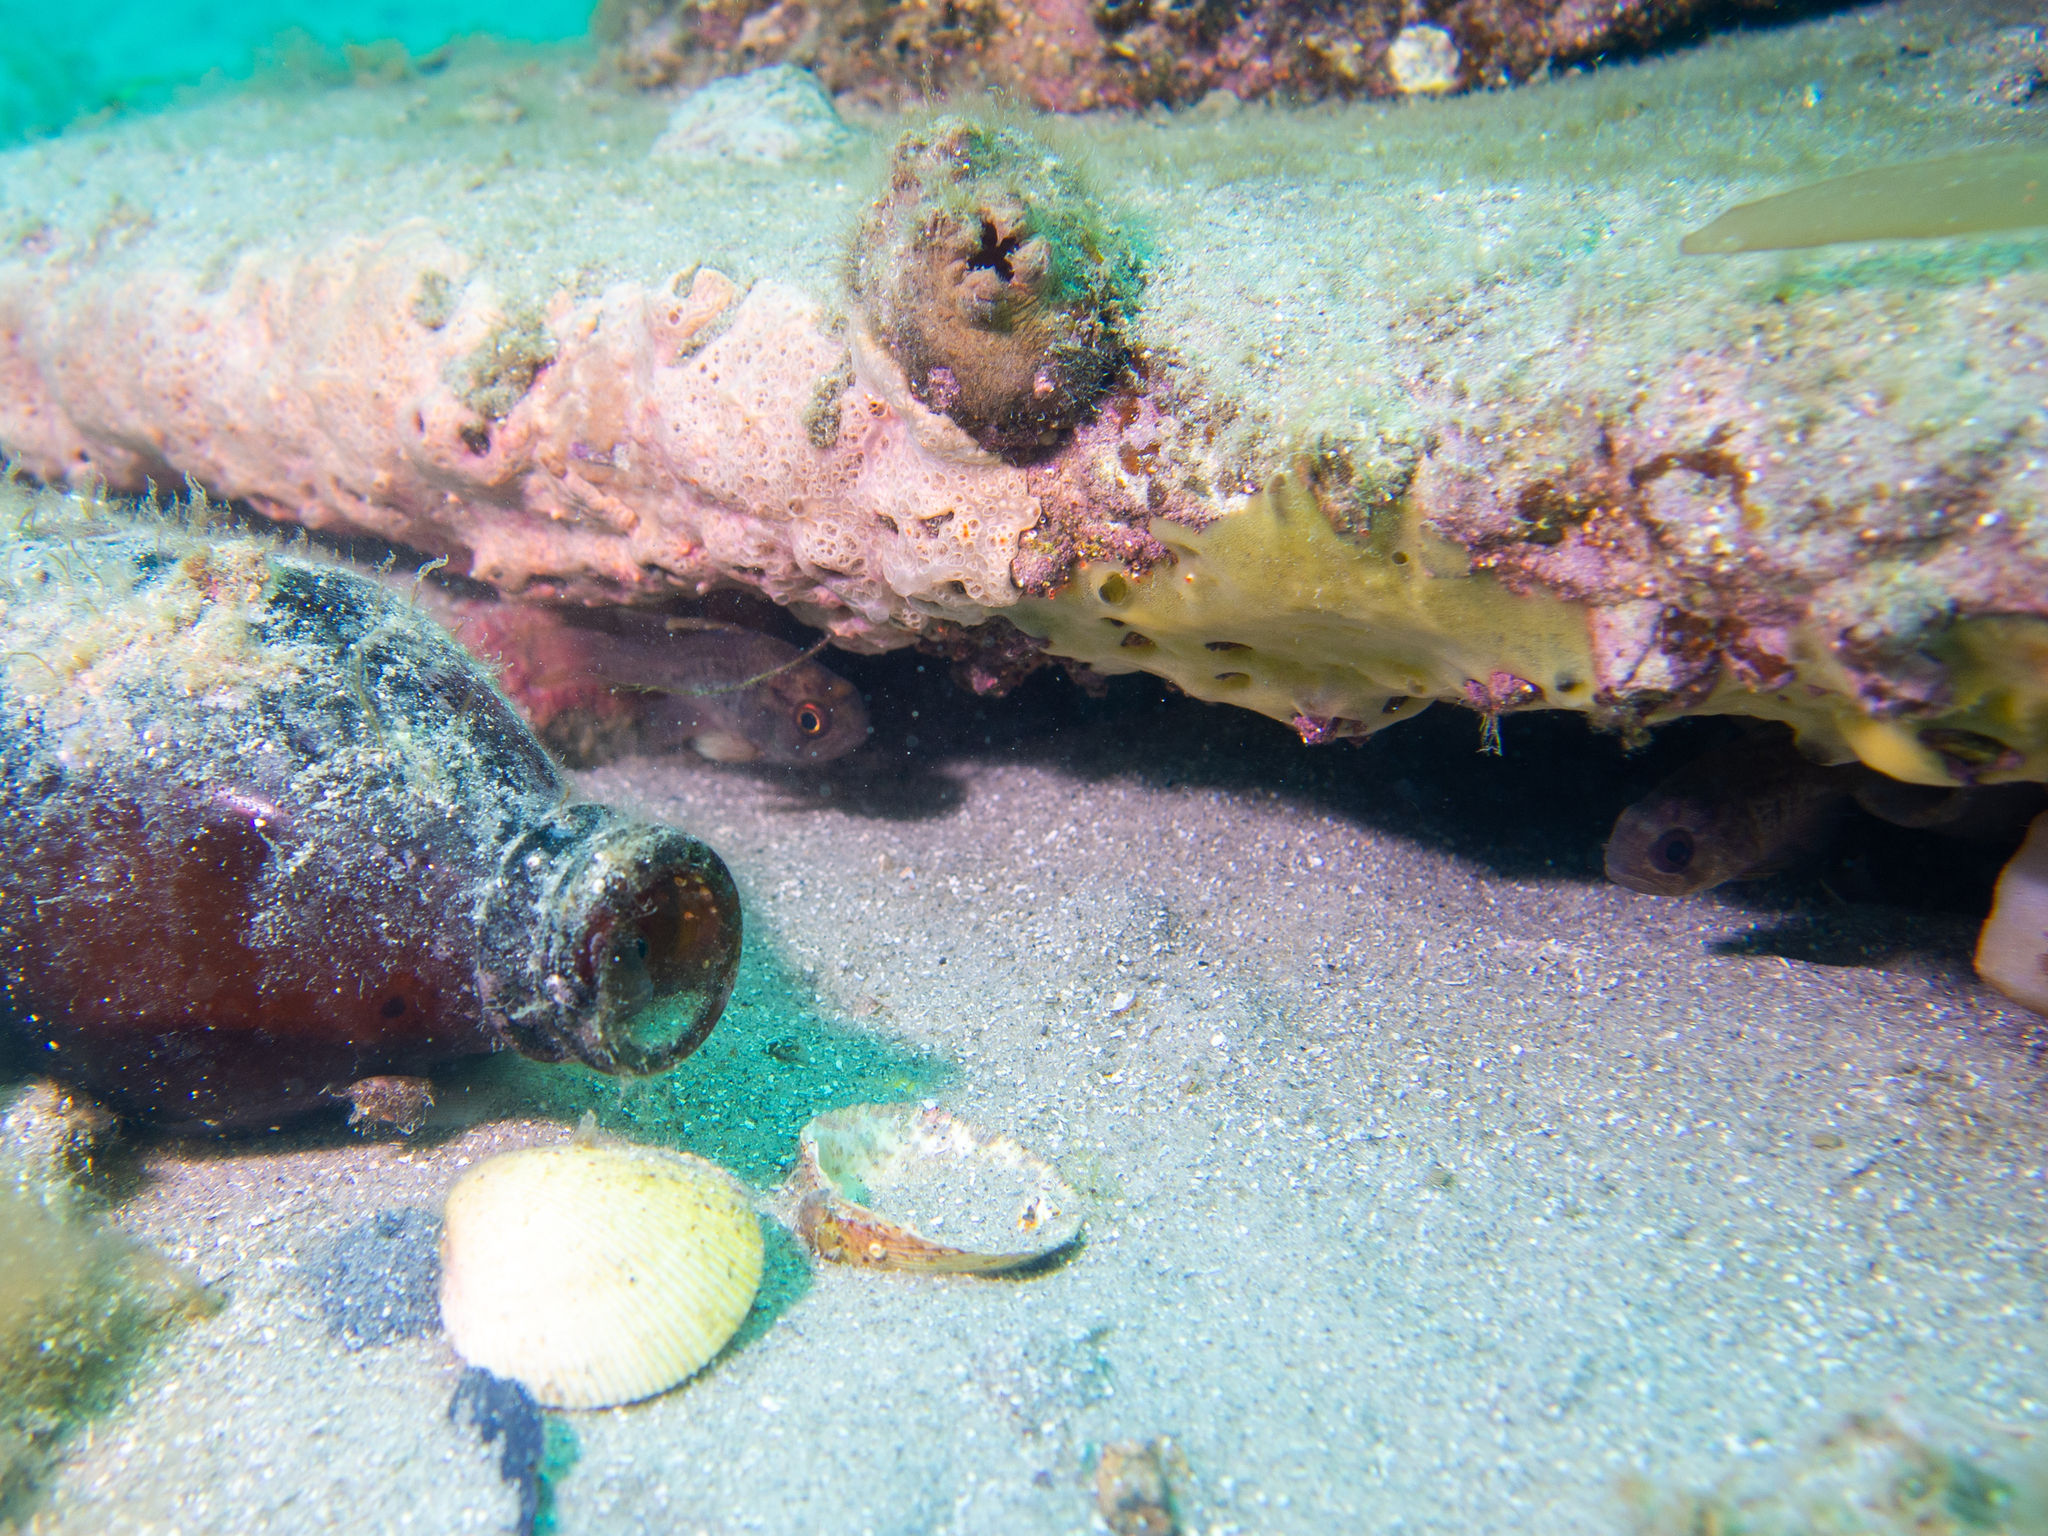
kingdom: Animalia
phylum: Chordata
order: Perciformes
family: Apogonidae
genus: Vincentia
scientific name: Vincentia conspersa
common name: Orange cardinalfish
